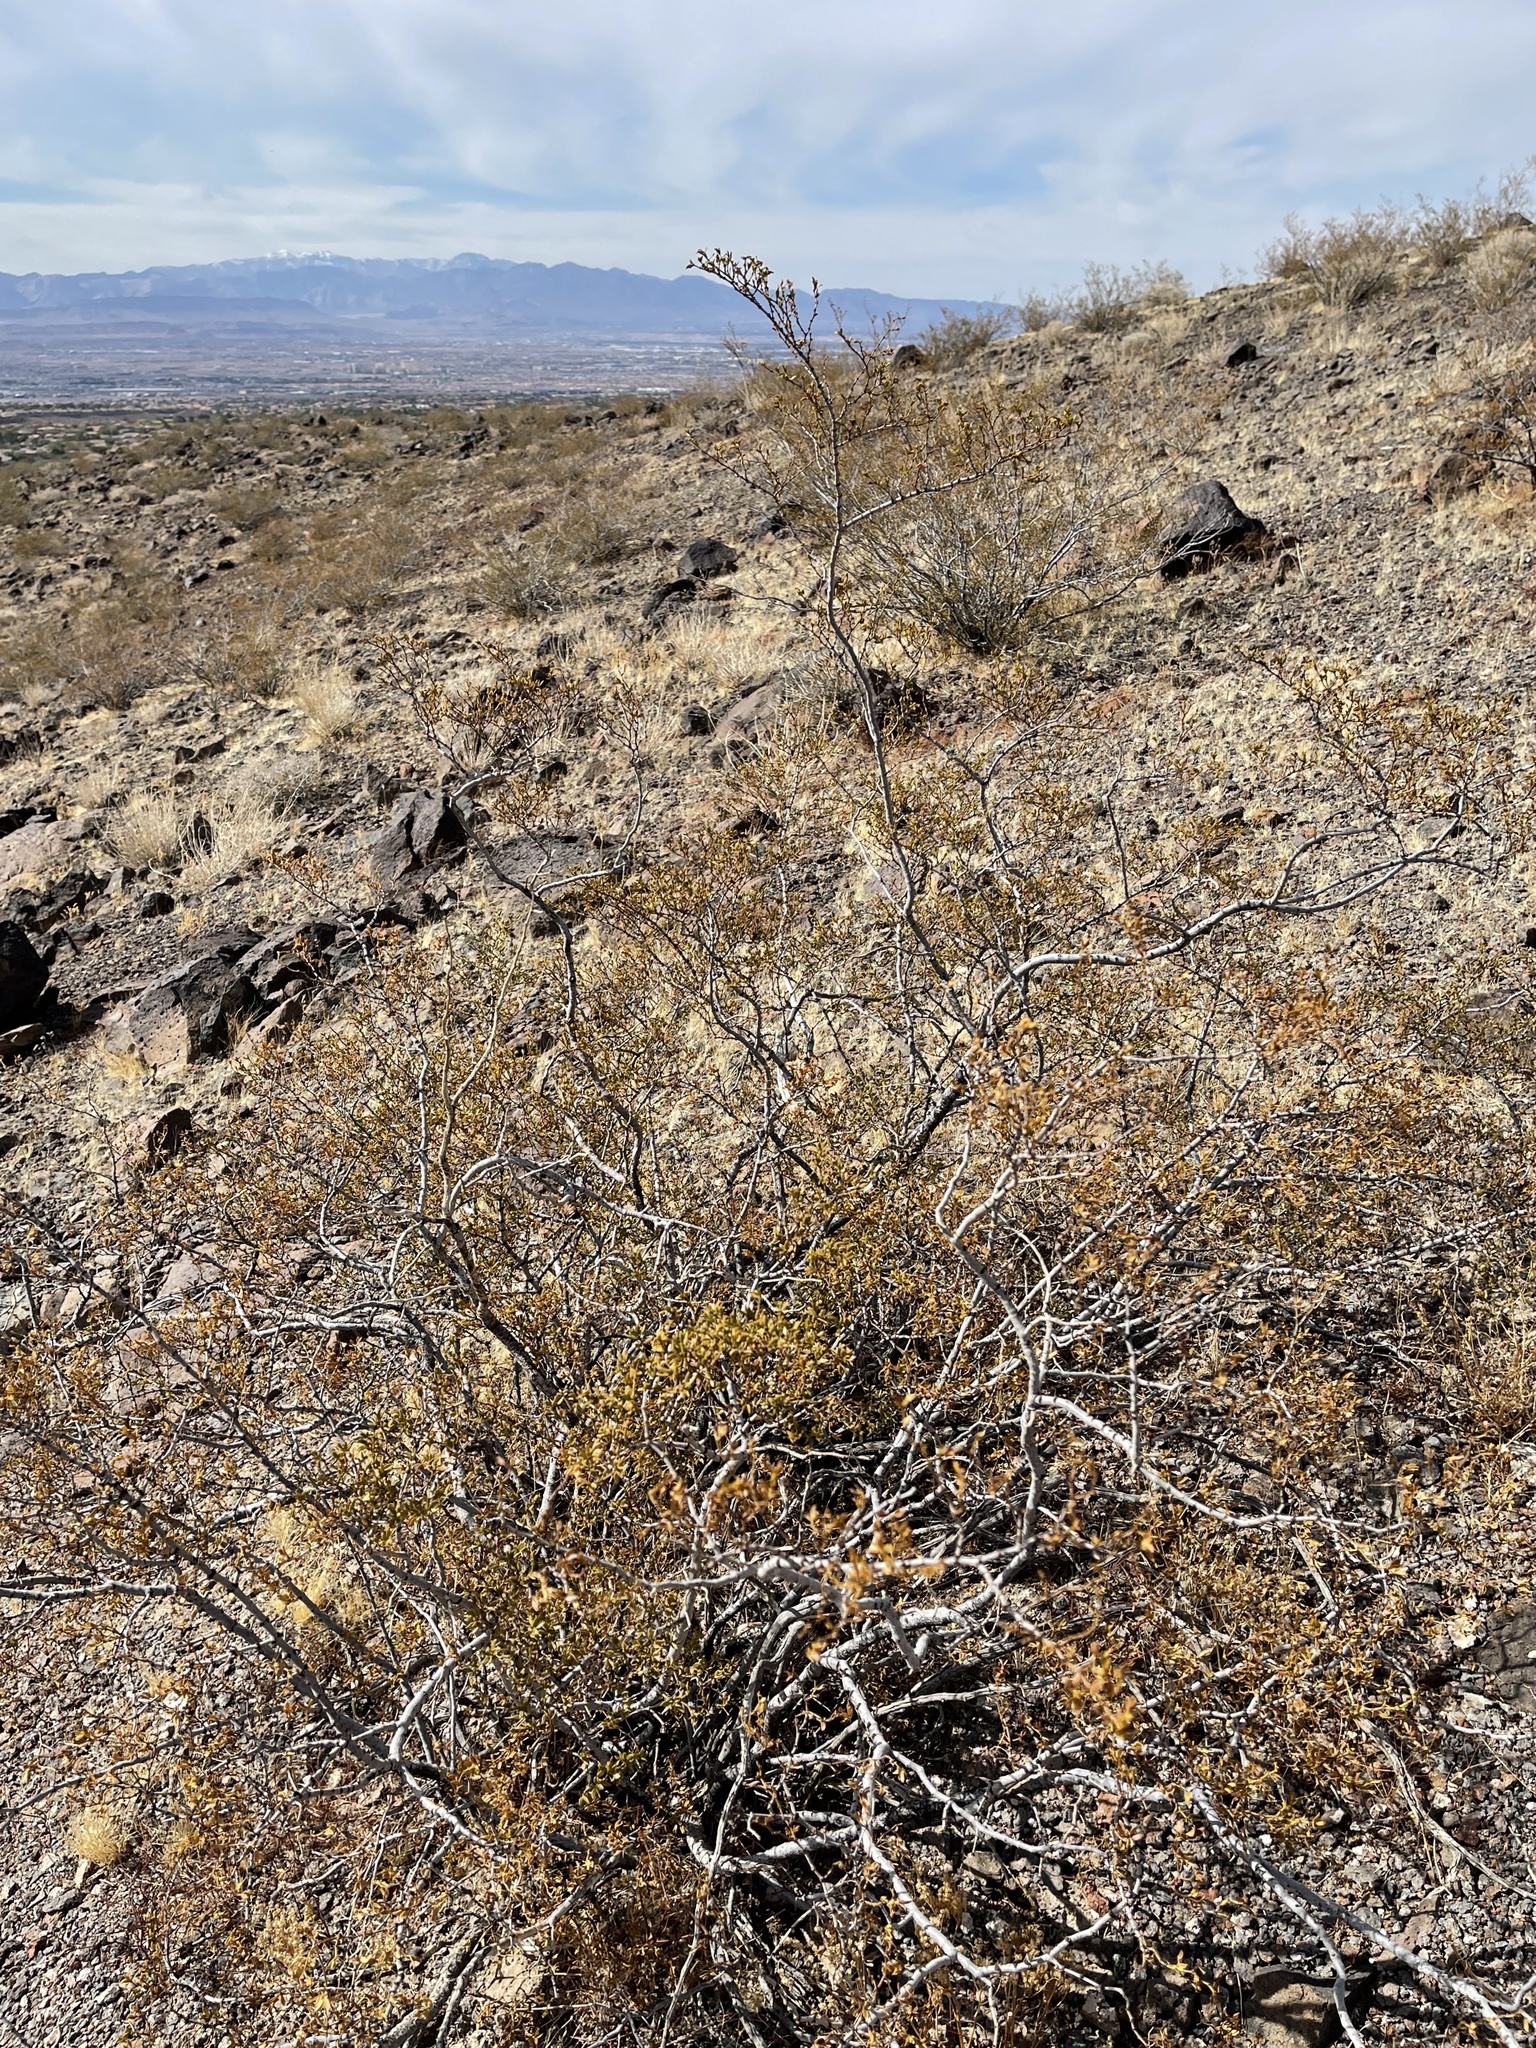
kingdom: Plantae
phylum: Tracheophyta
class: Magnoliopsida
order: Zygophyllales
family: Zygophyllaceae
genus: Larrea
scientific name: Larrea tridentata
